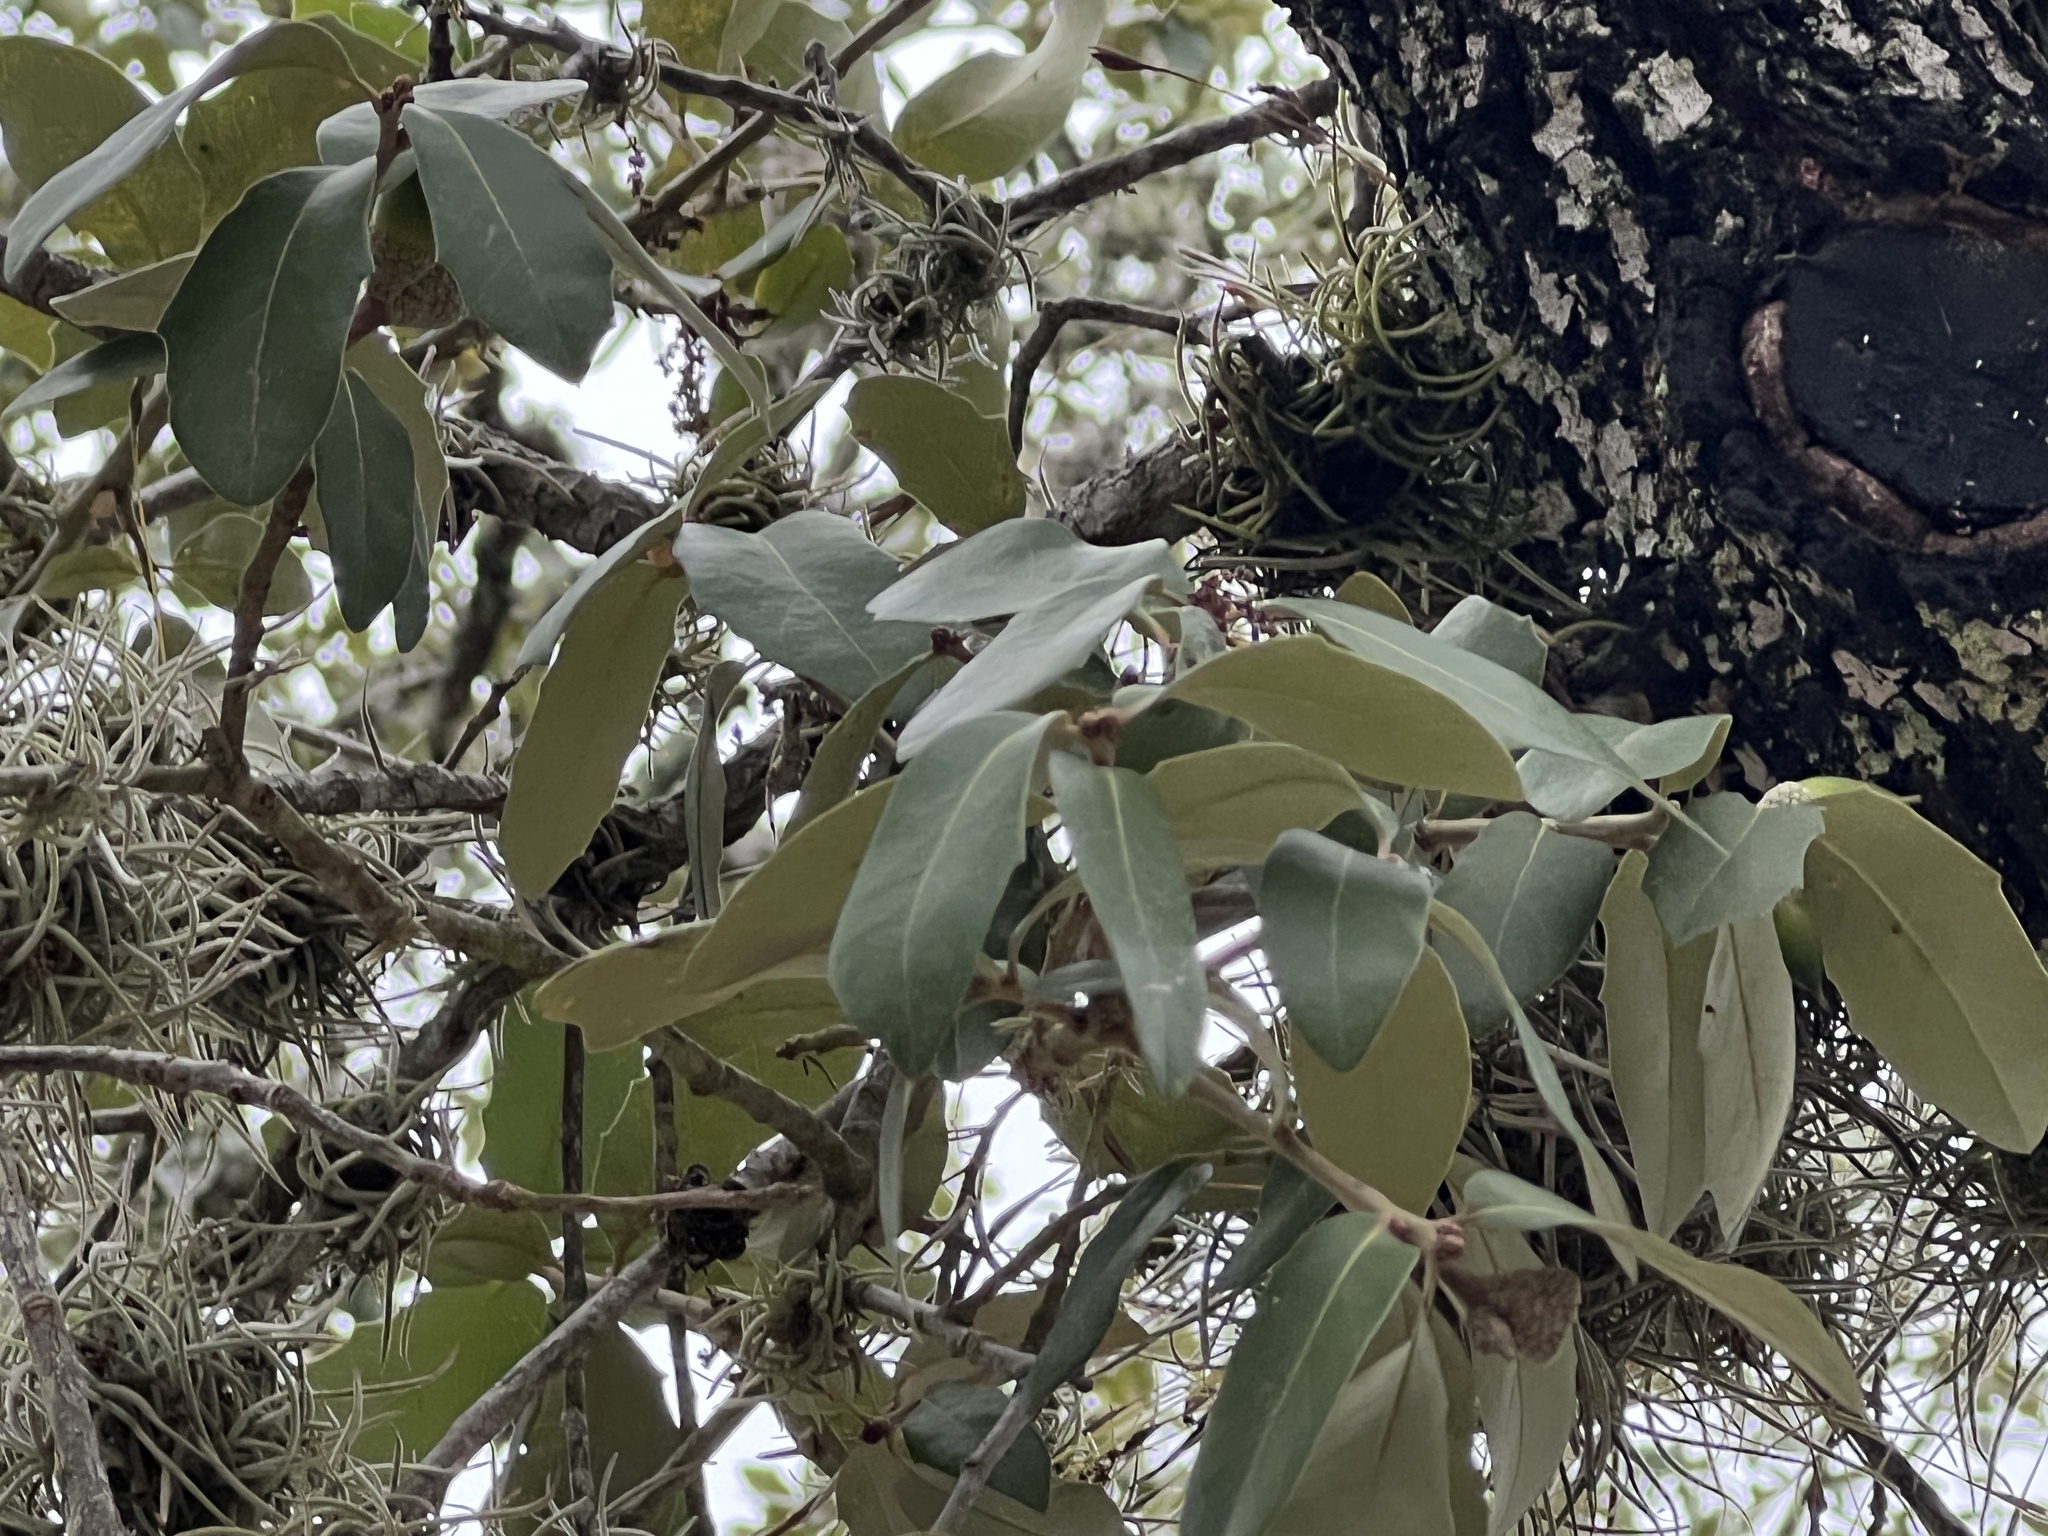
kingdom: Plantae
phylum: Tracheophyta
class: Magnoliopsida
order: Fagales
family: Fagaceae
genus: Quercus
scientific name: Quercus fusiformis
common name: Texas live oak
